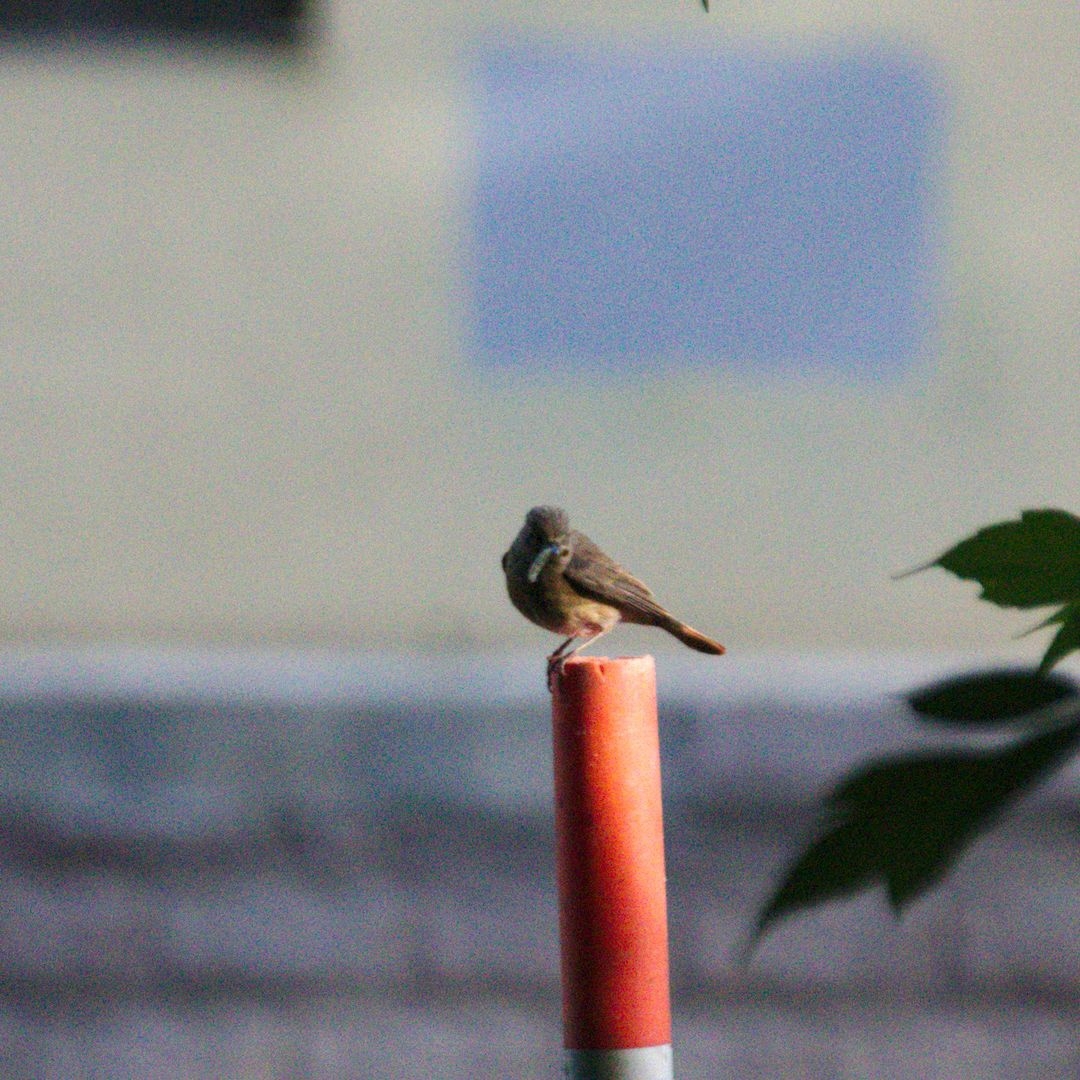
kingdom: Animalia
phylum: Chordata
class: Aves
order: Passeriformes
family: Muscicapidae
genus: Phoenicurus
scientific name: Phoenicurus phoenicurus
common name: Common redstart
